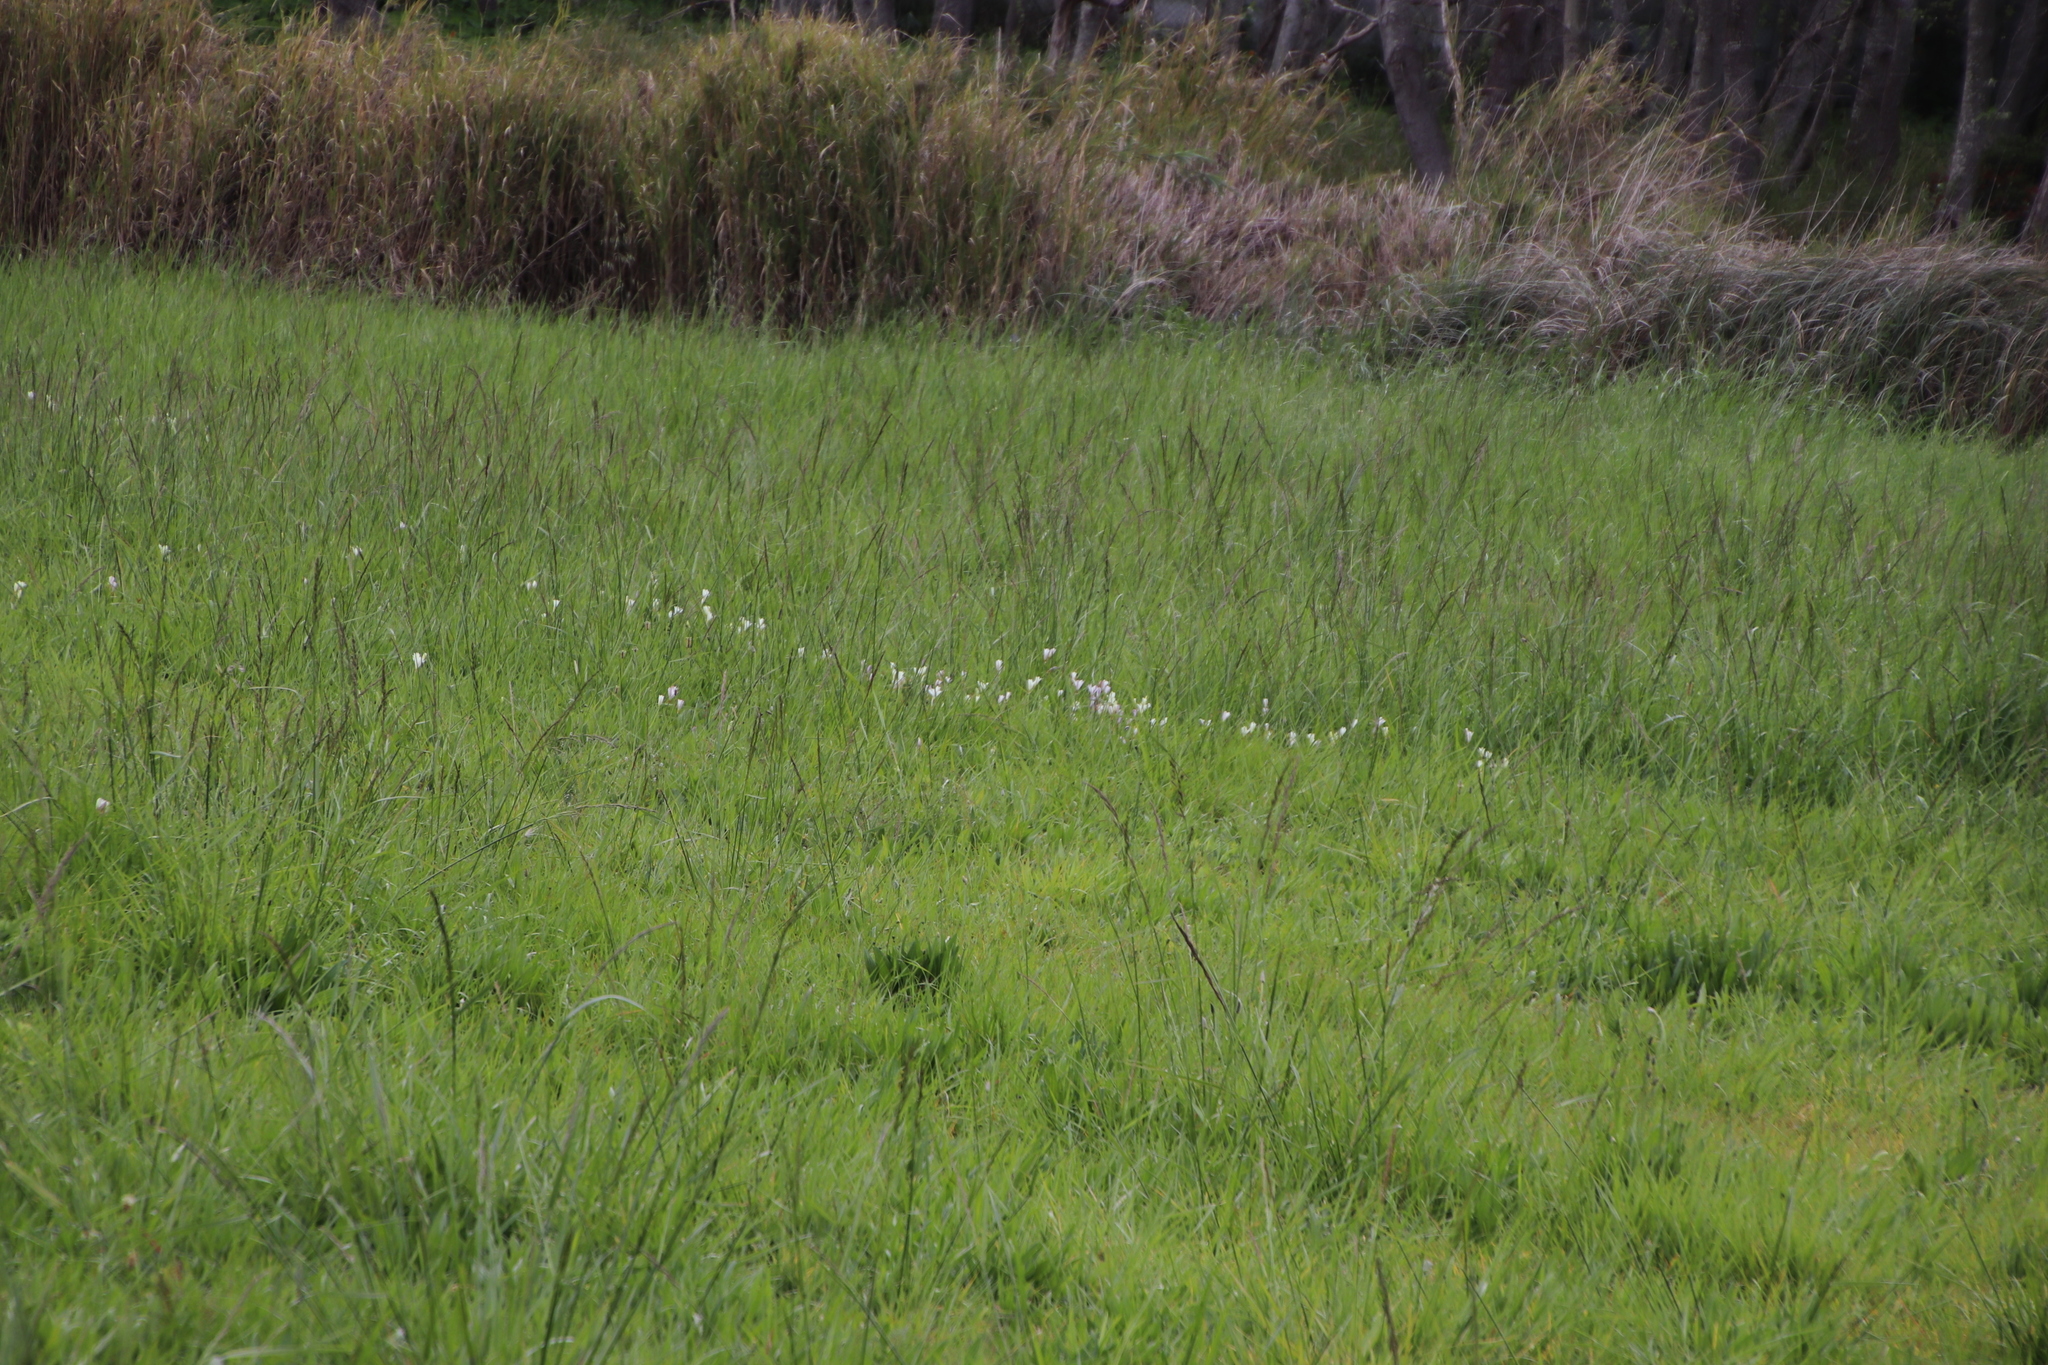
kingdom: Plantae
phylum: Tracheophyta
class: Liliopsida
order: Poales
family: Poaceae
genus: Cenchrus
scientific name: Cenchrus clandestinus
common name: Kikuyugrass
